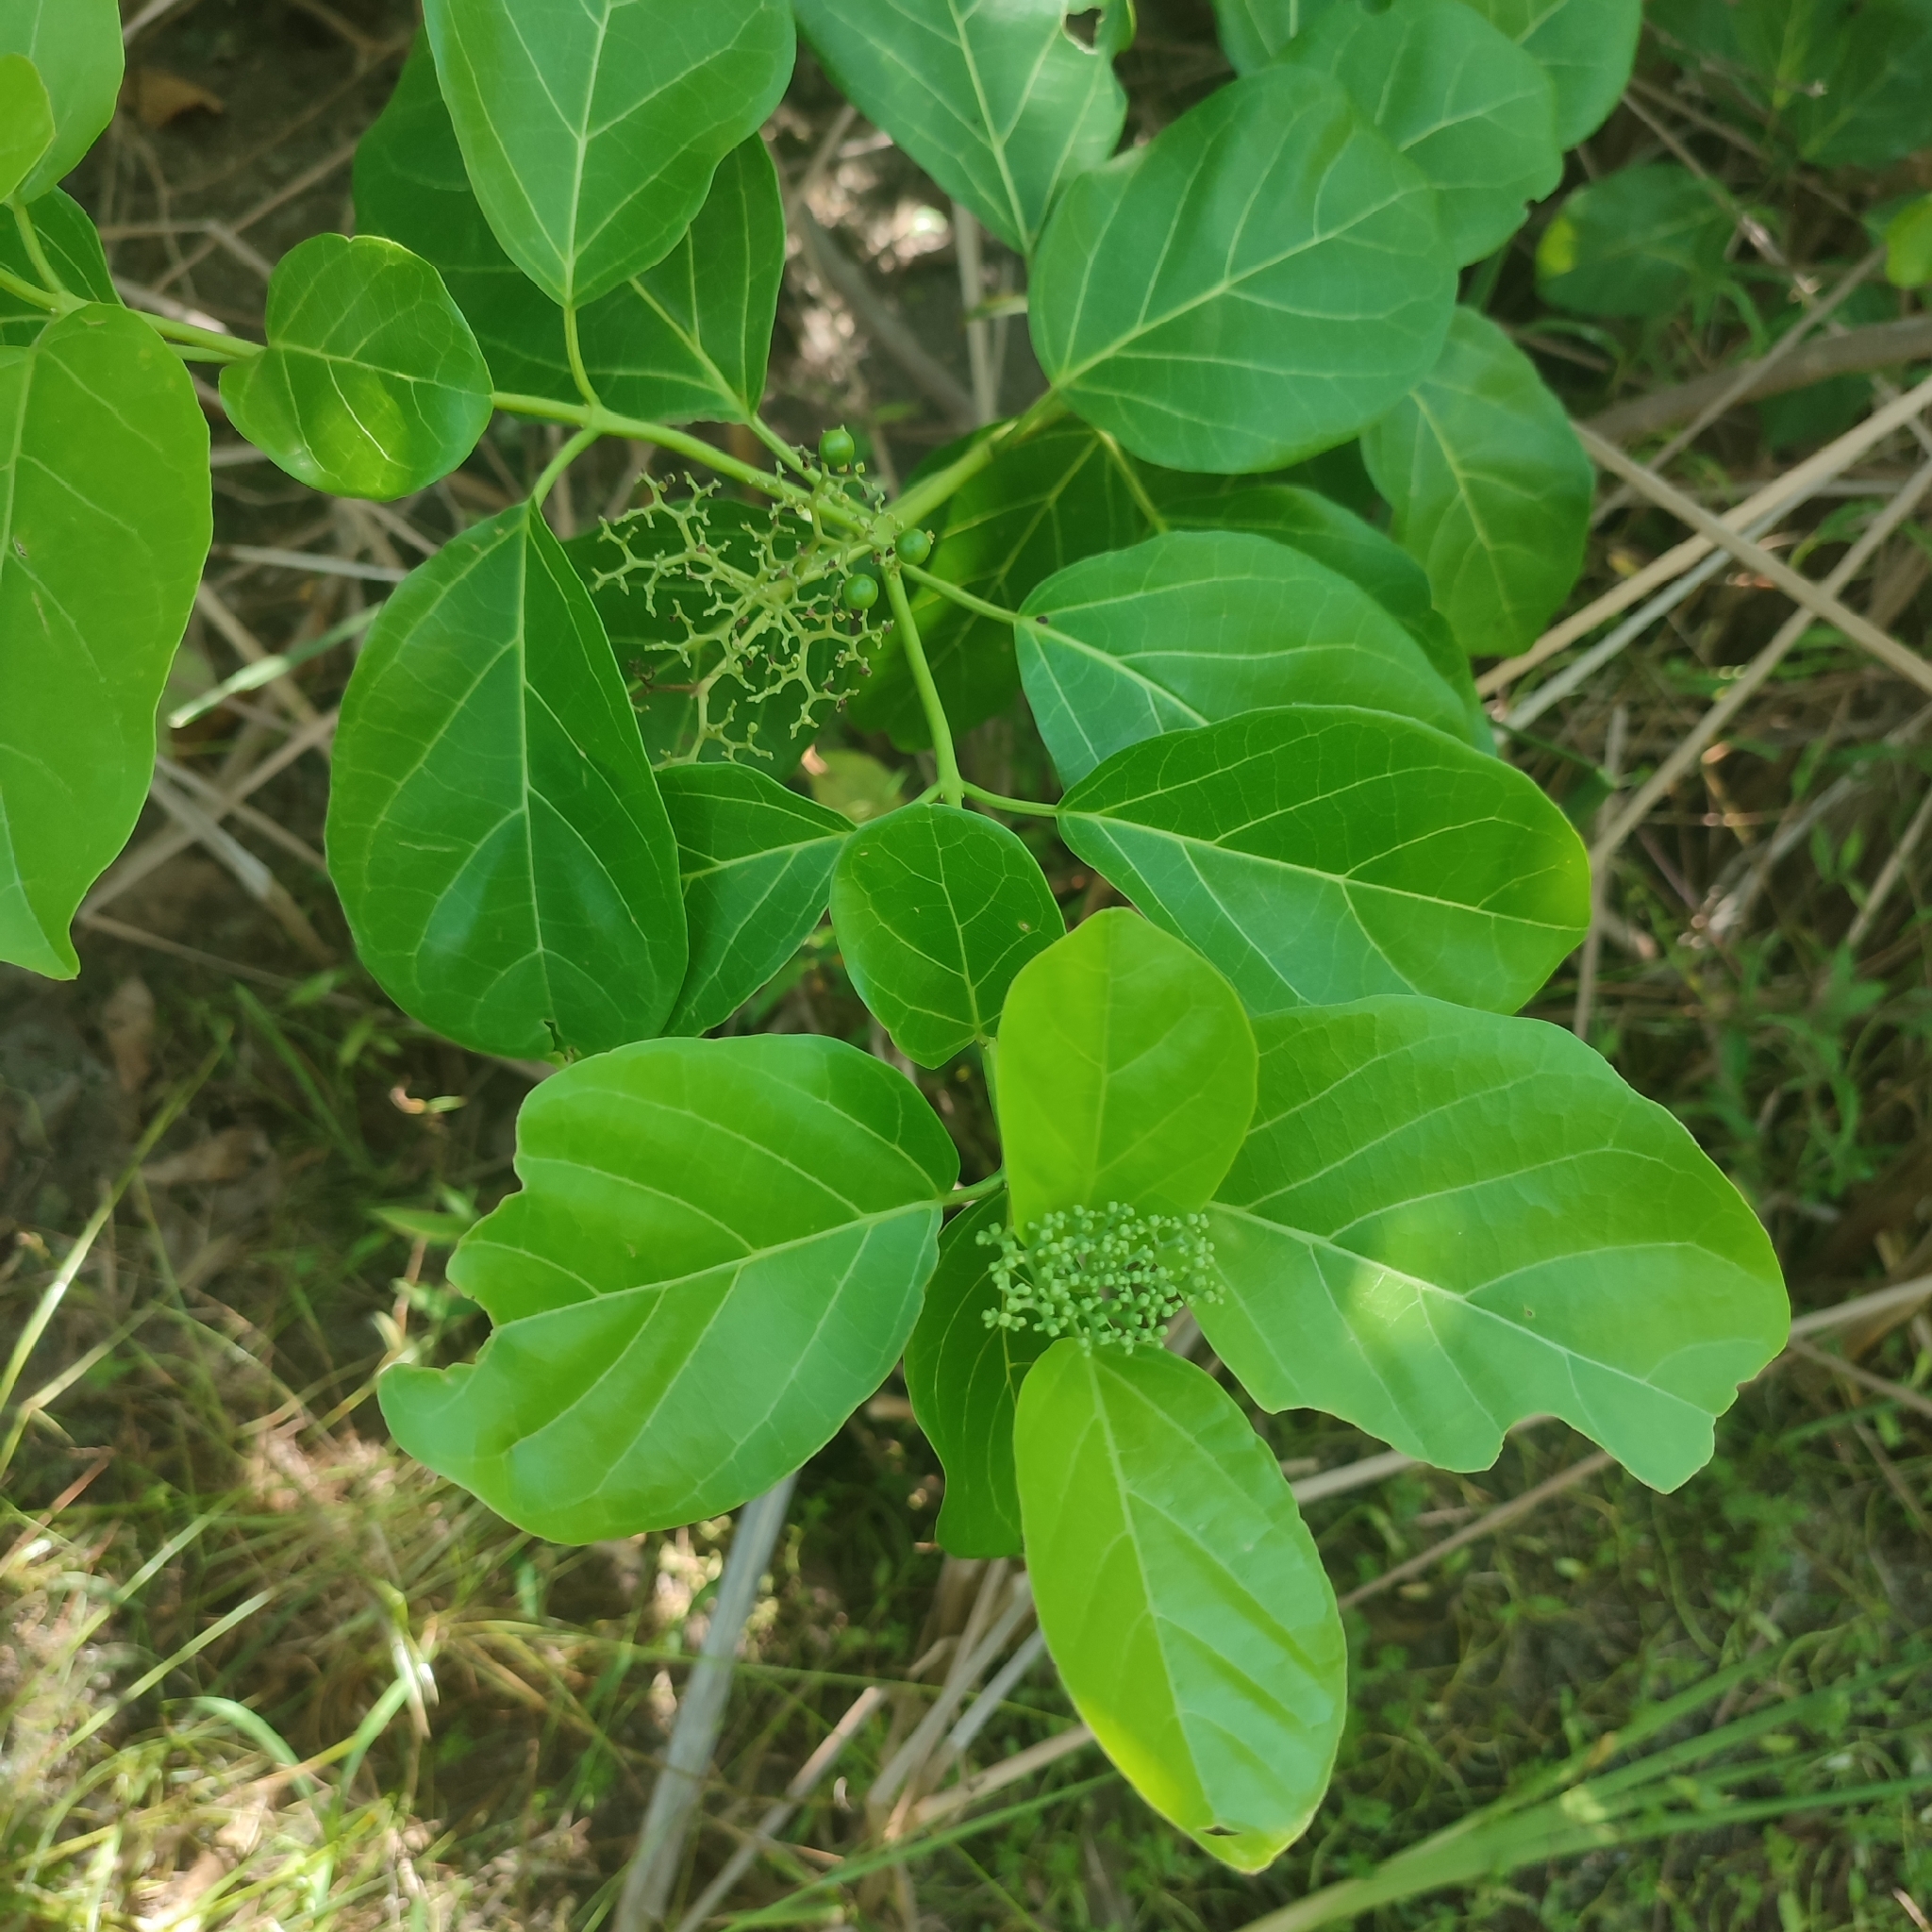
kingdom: Plantae
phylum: Tracheophyta
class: Magnoliopsida
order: Lamiales
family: Lamiaceae
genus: Premna
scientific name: Premna serratifolia
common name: Bastard guelder
